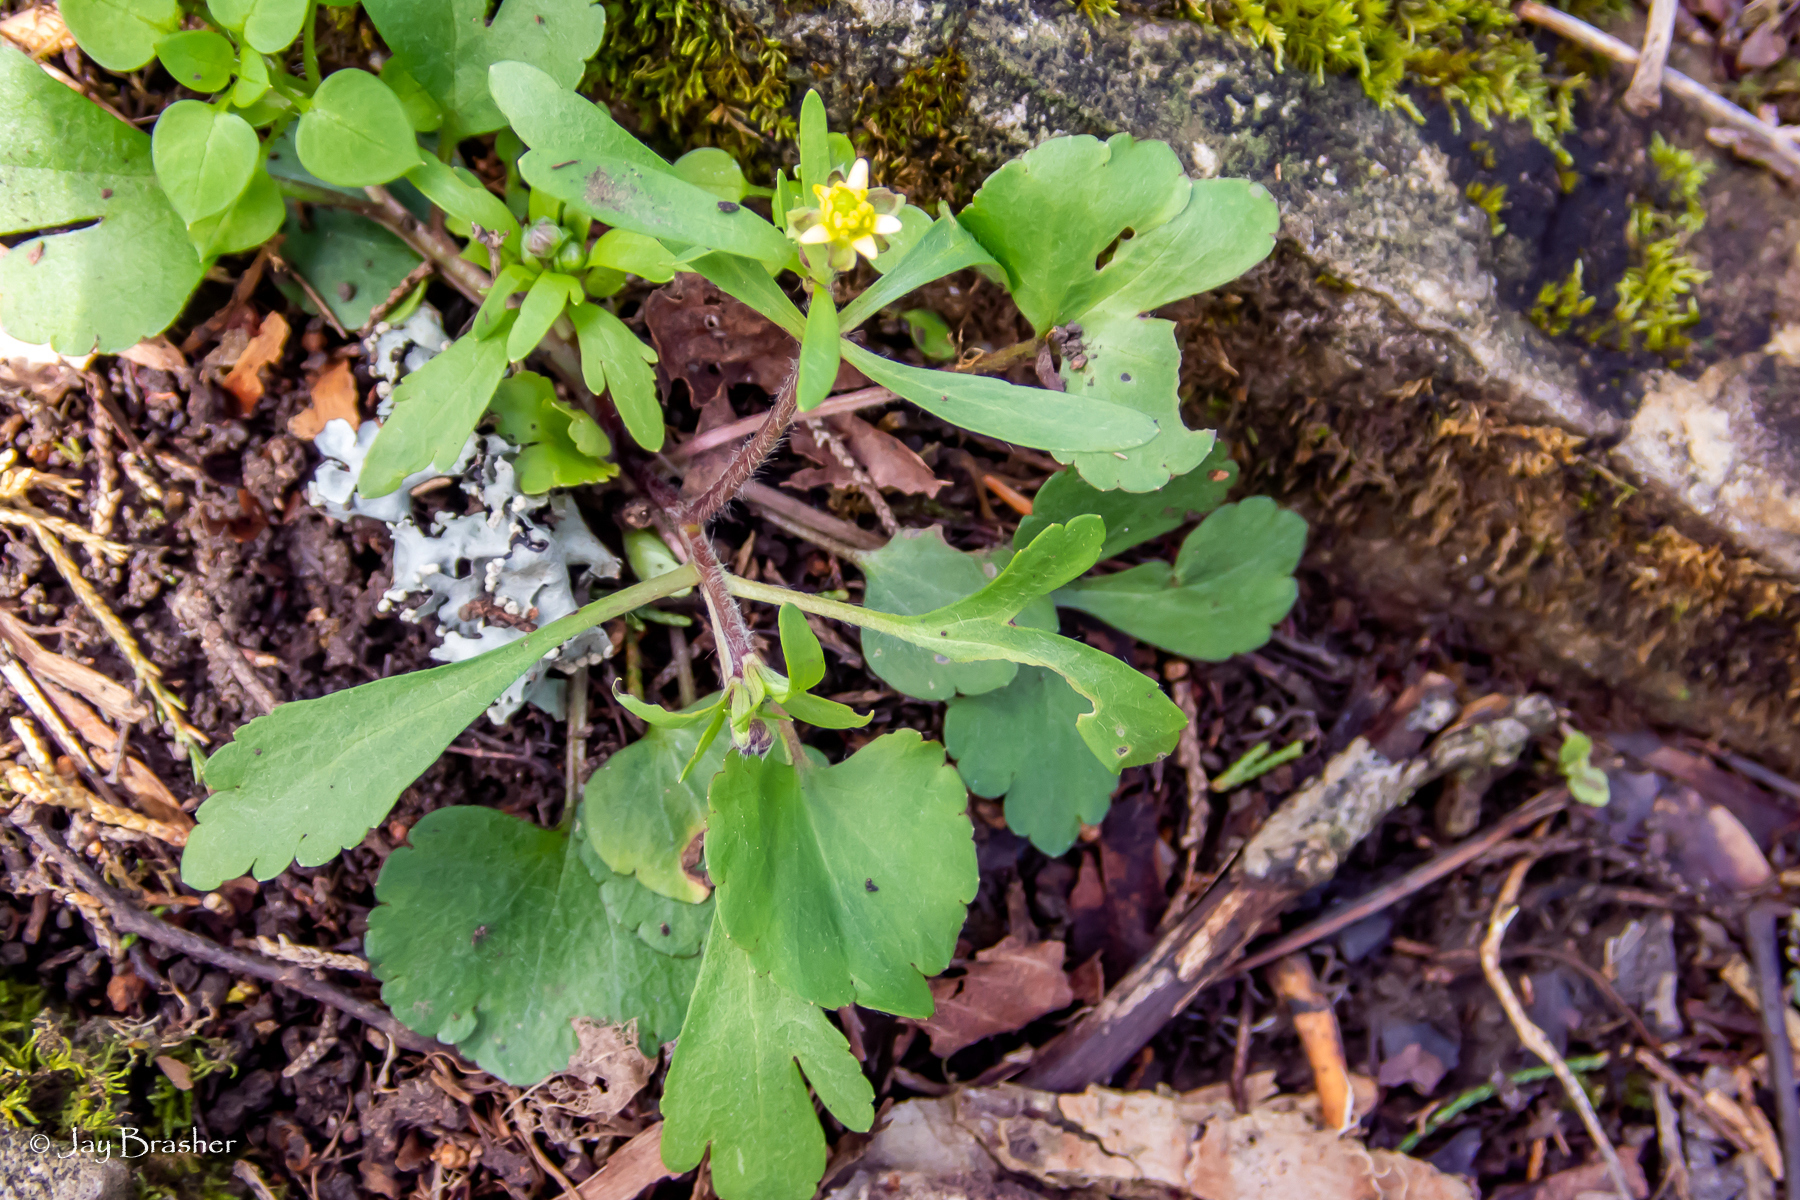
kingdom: Plantae
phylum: Tracheophyta
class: Magnoliopsida
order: Ranunculales
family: Ranunculaceae
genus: Ranunculus
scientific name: Ranunculus micranthus
